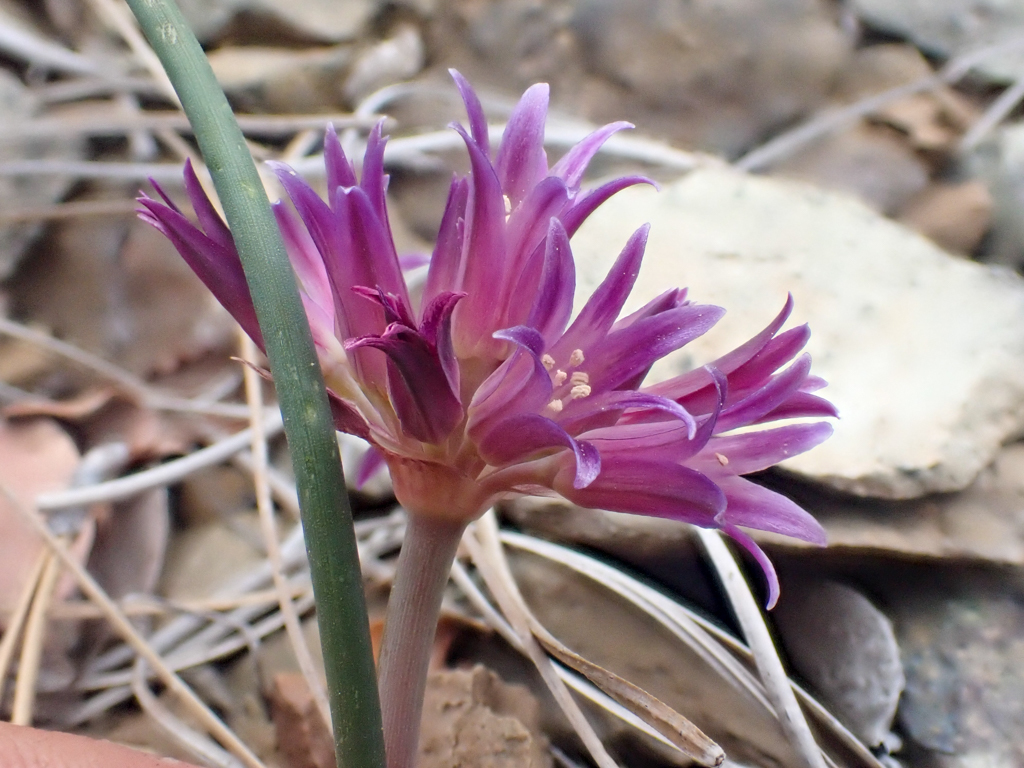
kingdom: Plantae
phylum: Tracheophyta
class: Liliopsida
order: Asparagales
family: Amaryllidaceae
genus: Allium
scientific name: Allium sharsmithiae
